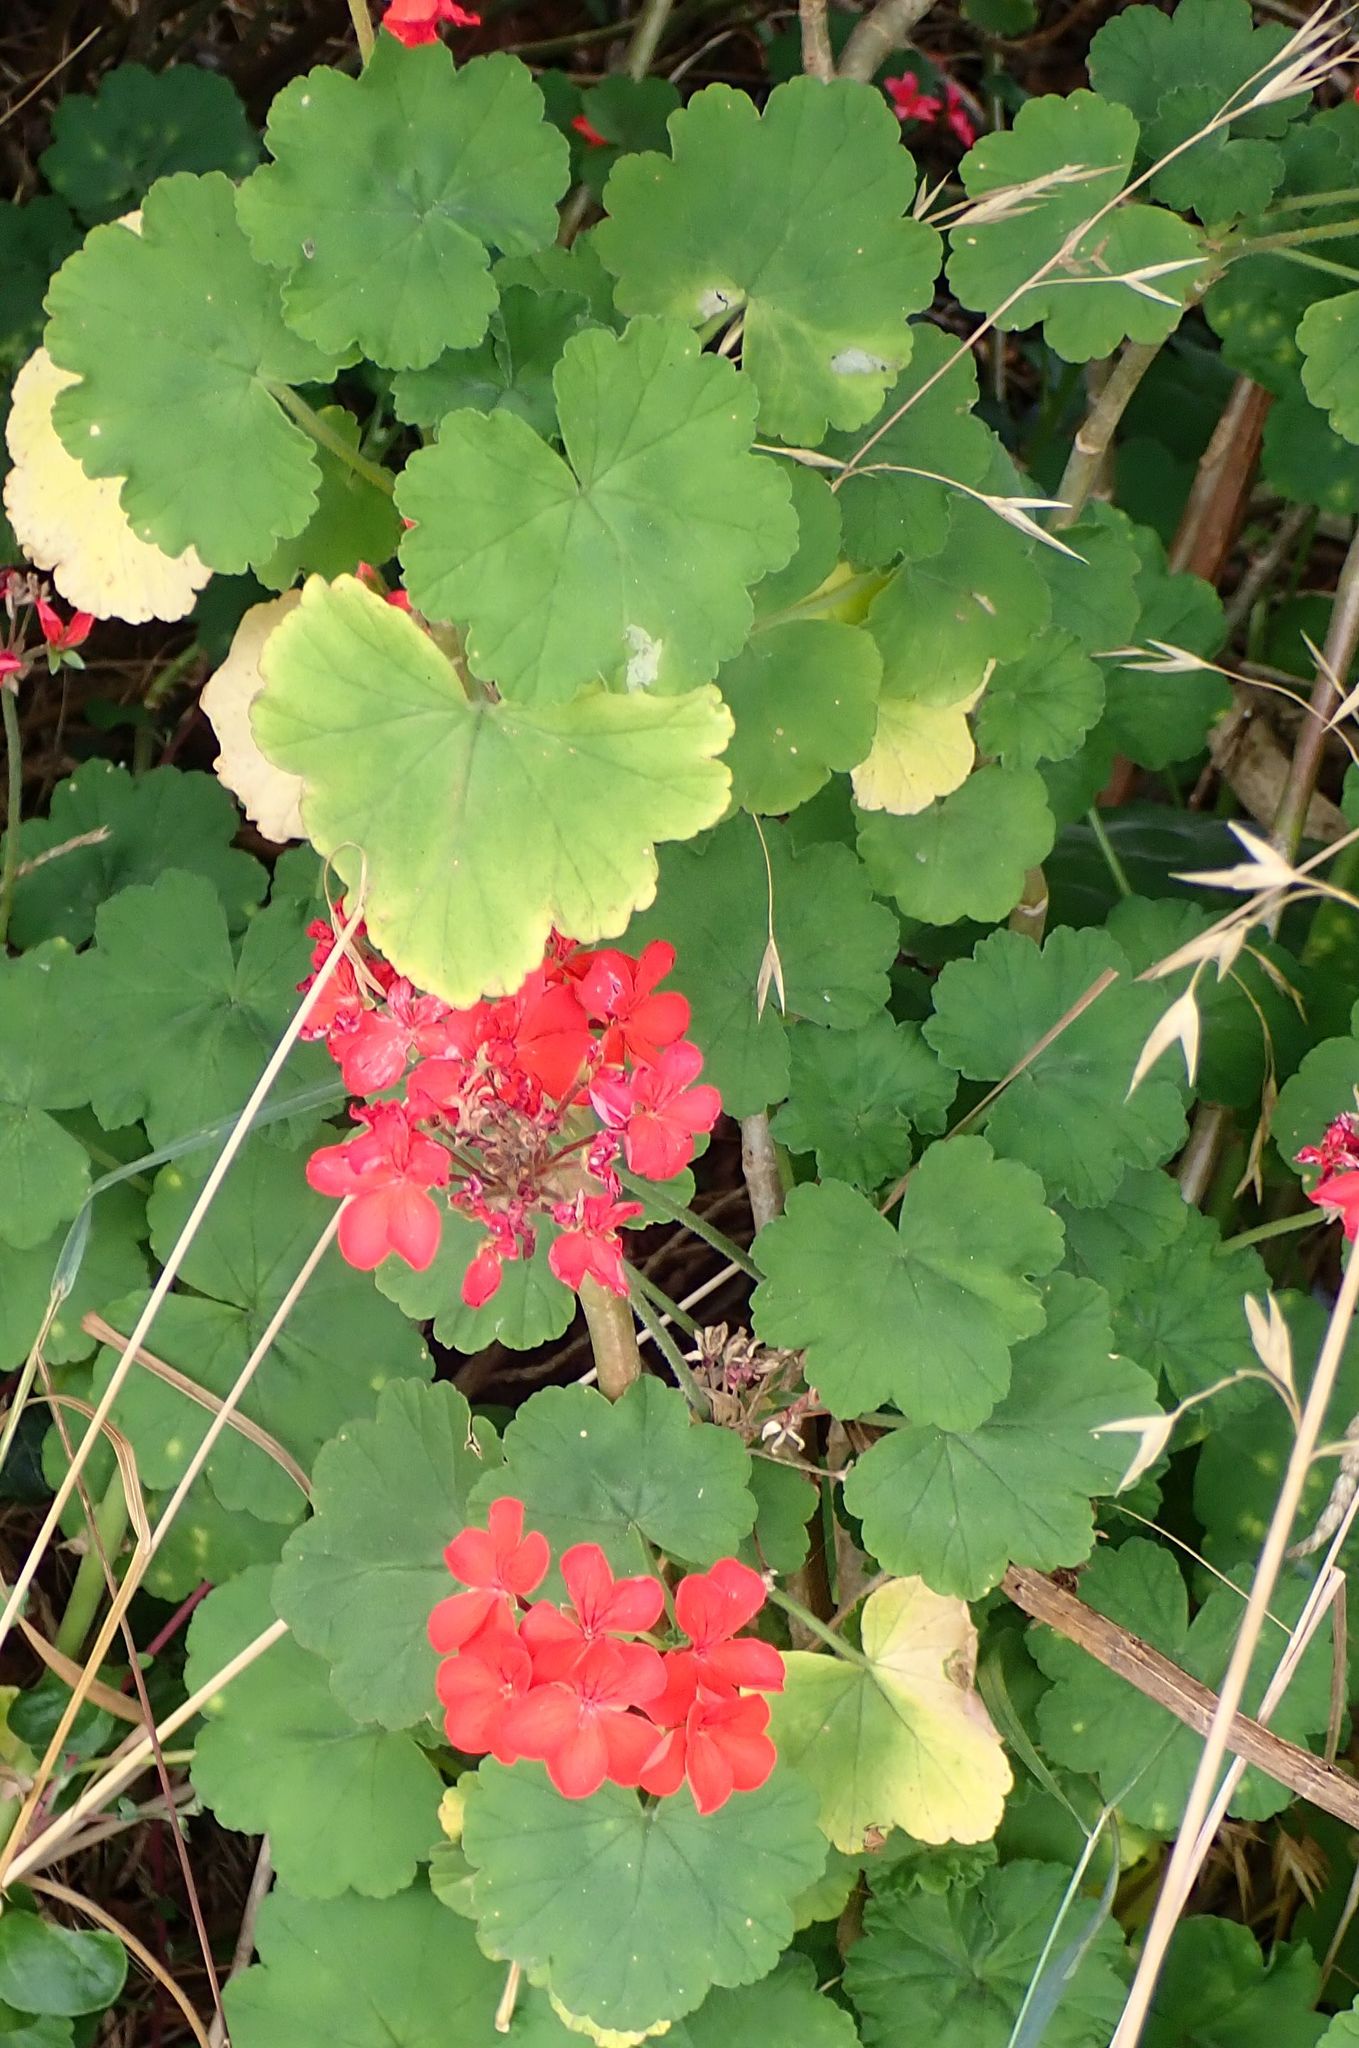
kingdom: Plantae
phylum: Tracheophyta
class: Magnoliopsida
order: Geraniales
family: Geraniaceae
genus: Pelargonium
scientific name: Pelargonium hybridum
